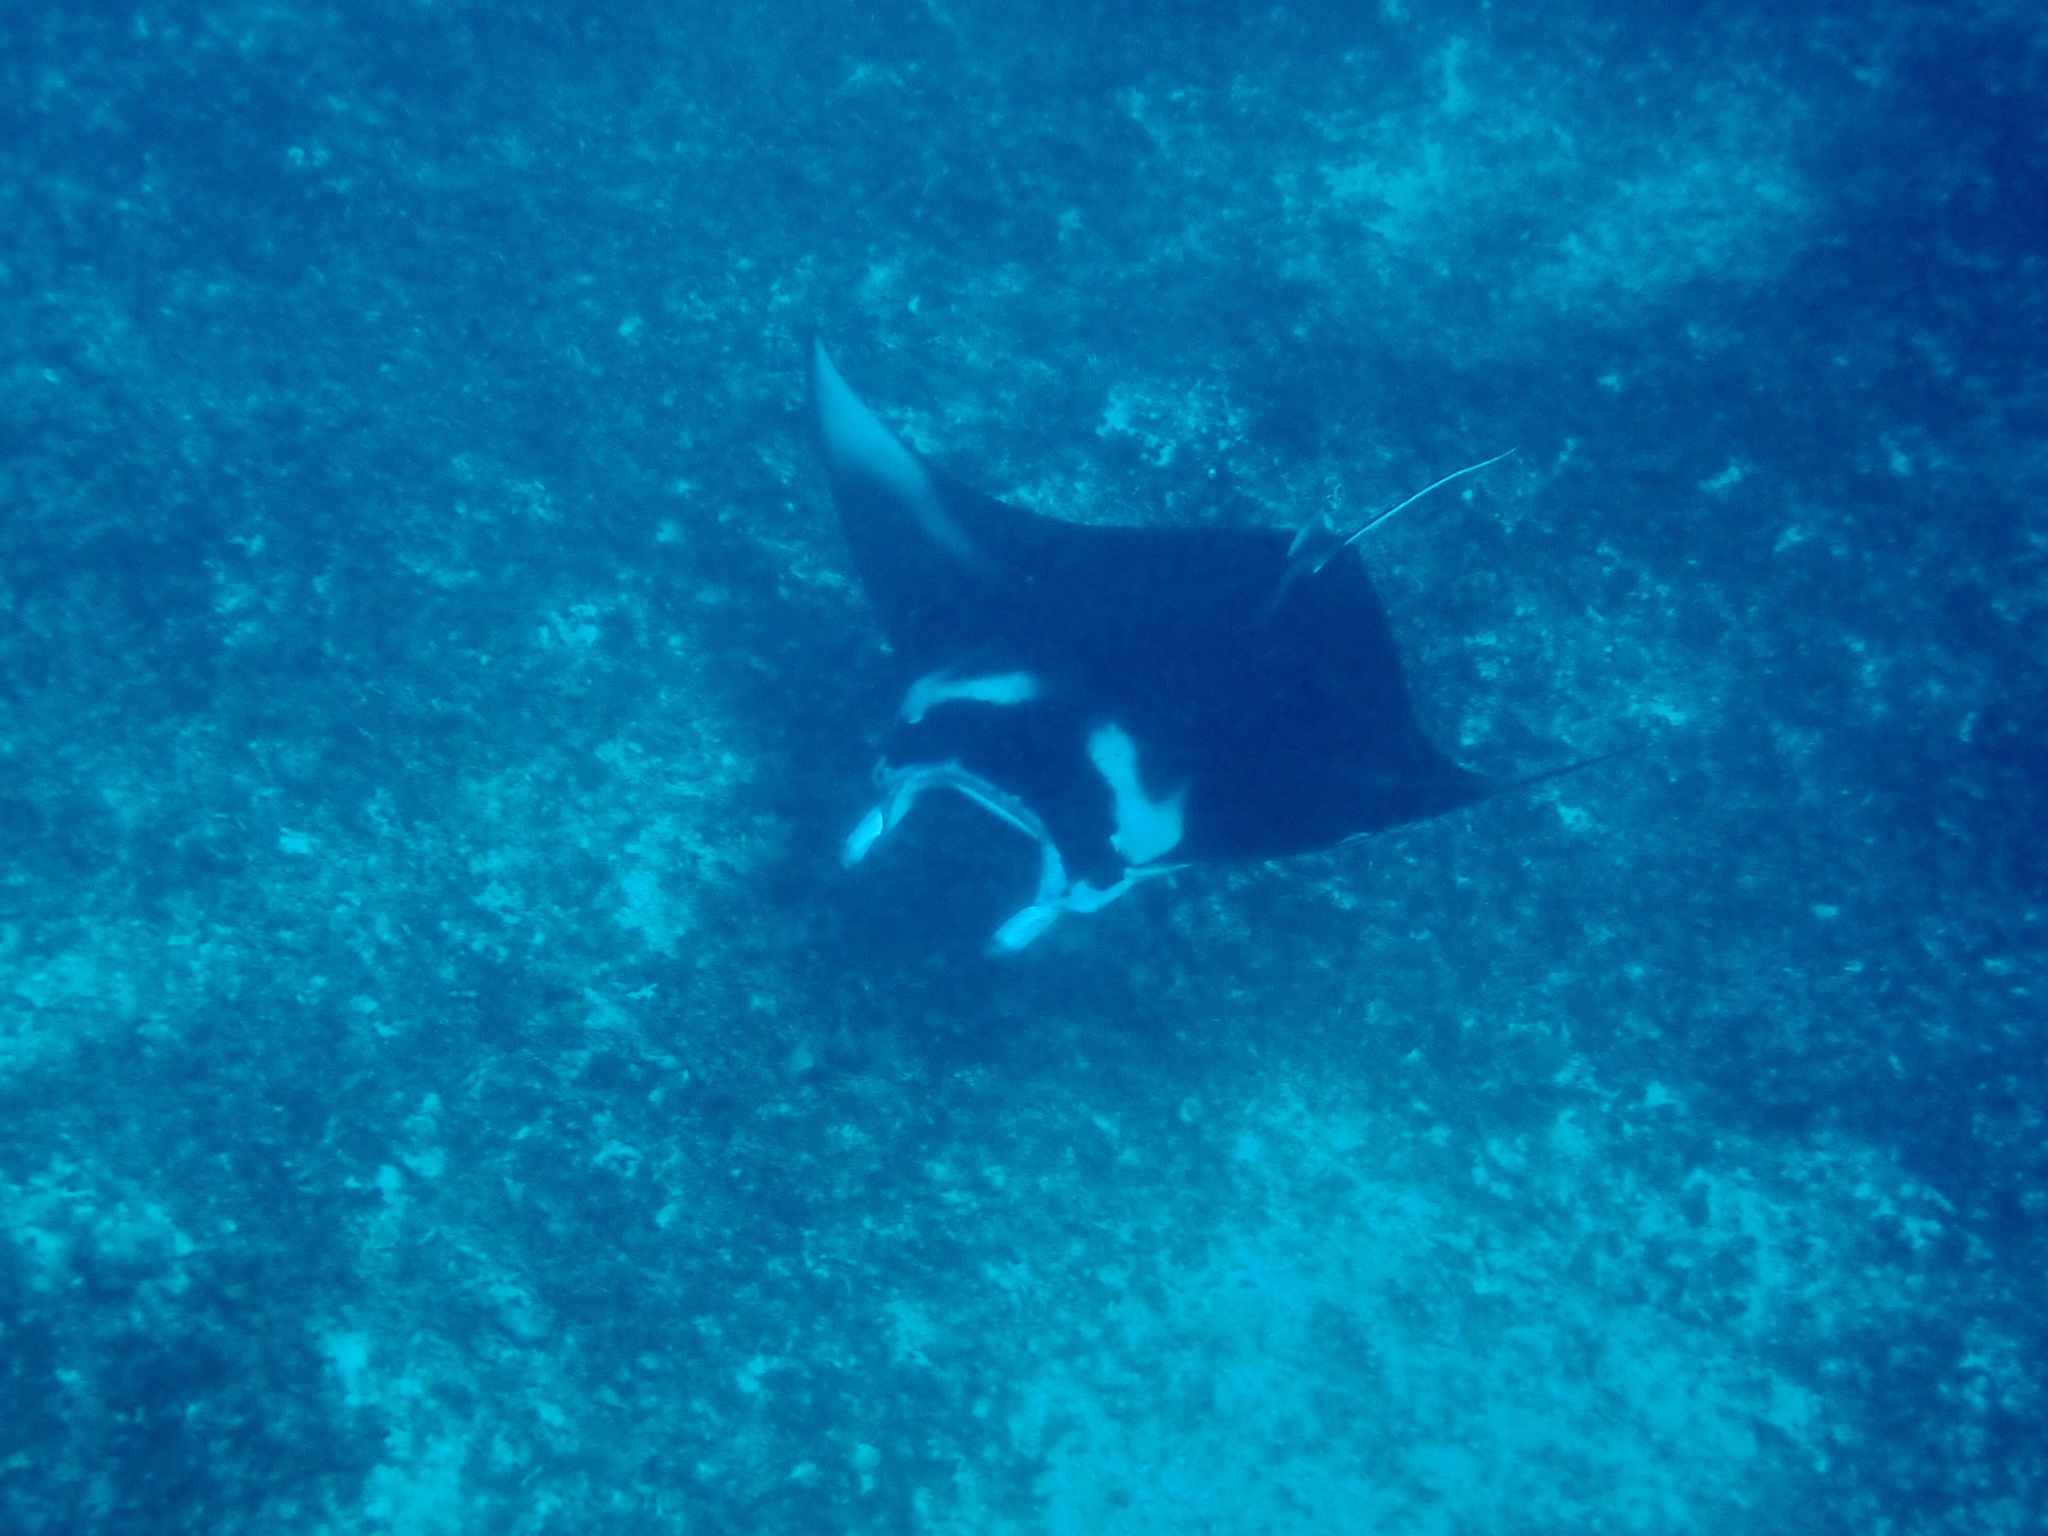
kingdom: Animalia
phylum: Chordata
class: Elasmobranchii
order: Myliobatiformes
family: Myliobatidae
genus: Mobula
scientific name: Mobula alfredi
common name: Reef manta ray
